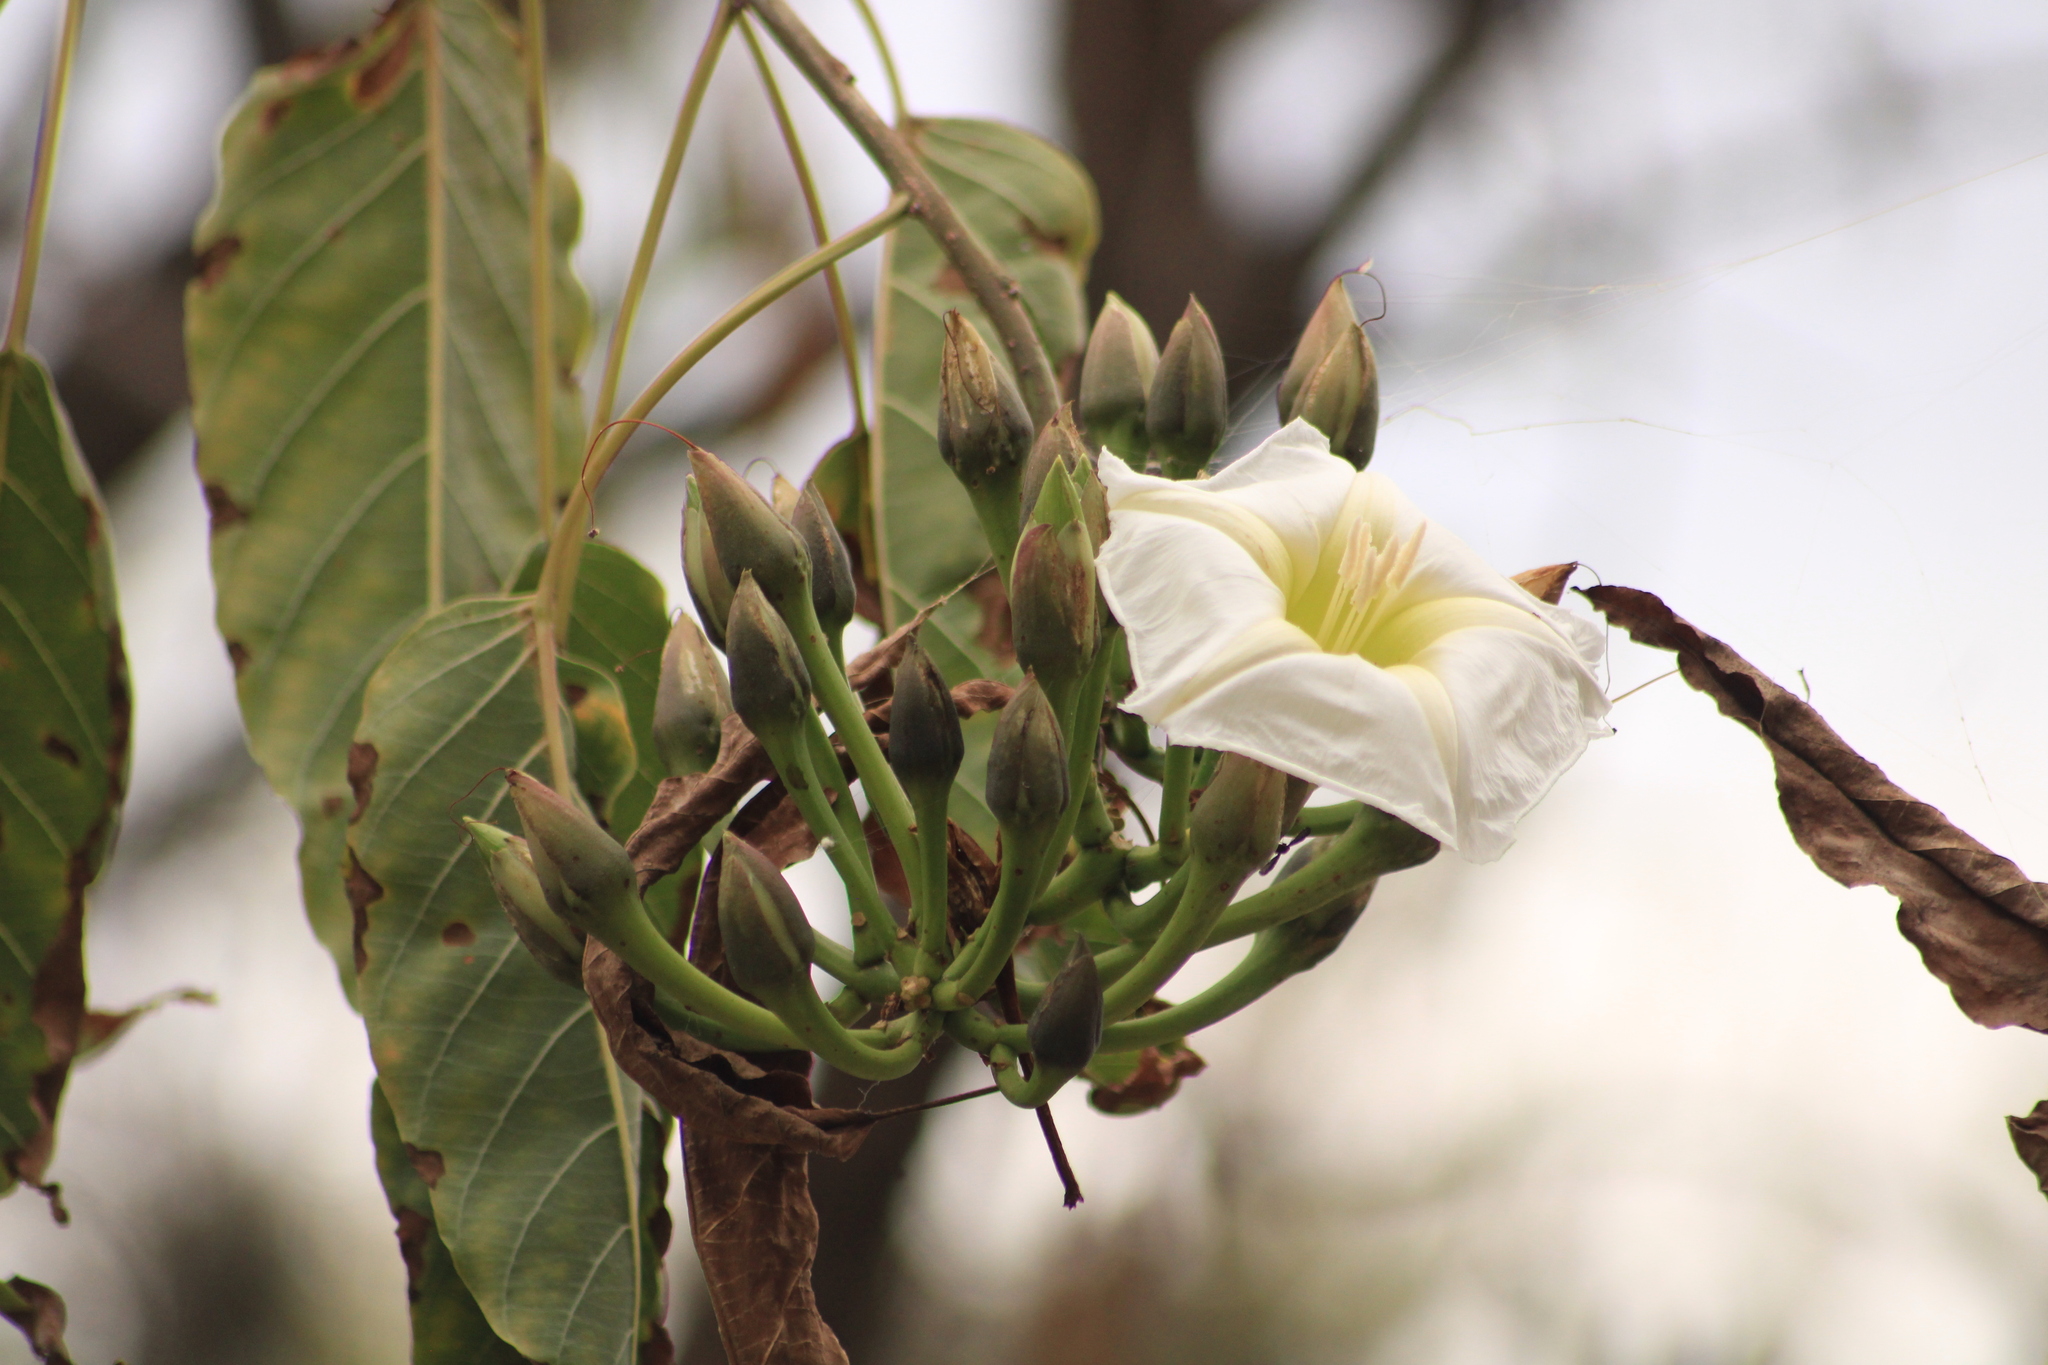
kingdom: Plantae
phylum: Tracheophyta
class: Magnoliopsida
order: Solanales
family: Convolvulaceae
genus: Ipomoea
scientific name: Ipomoea intrapilosa
